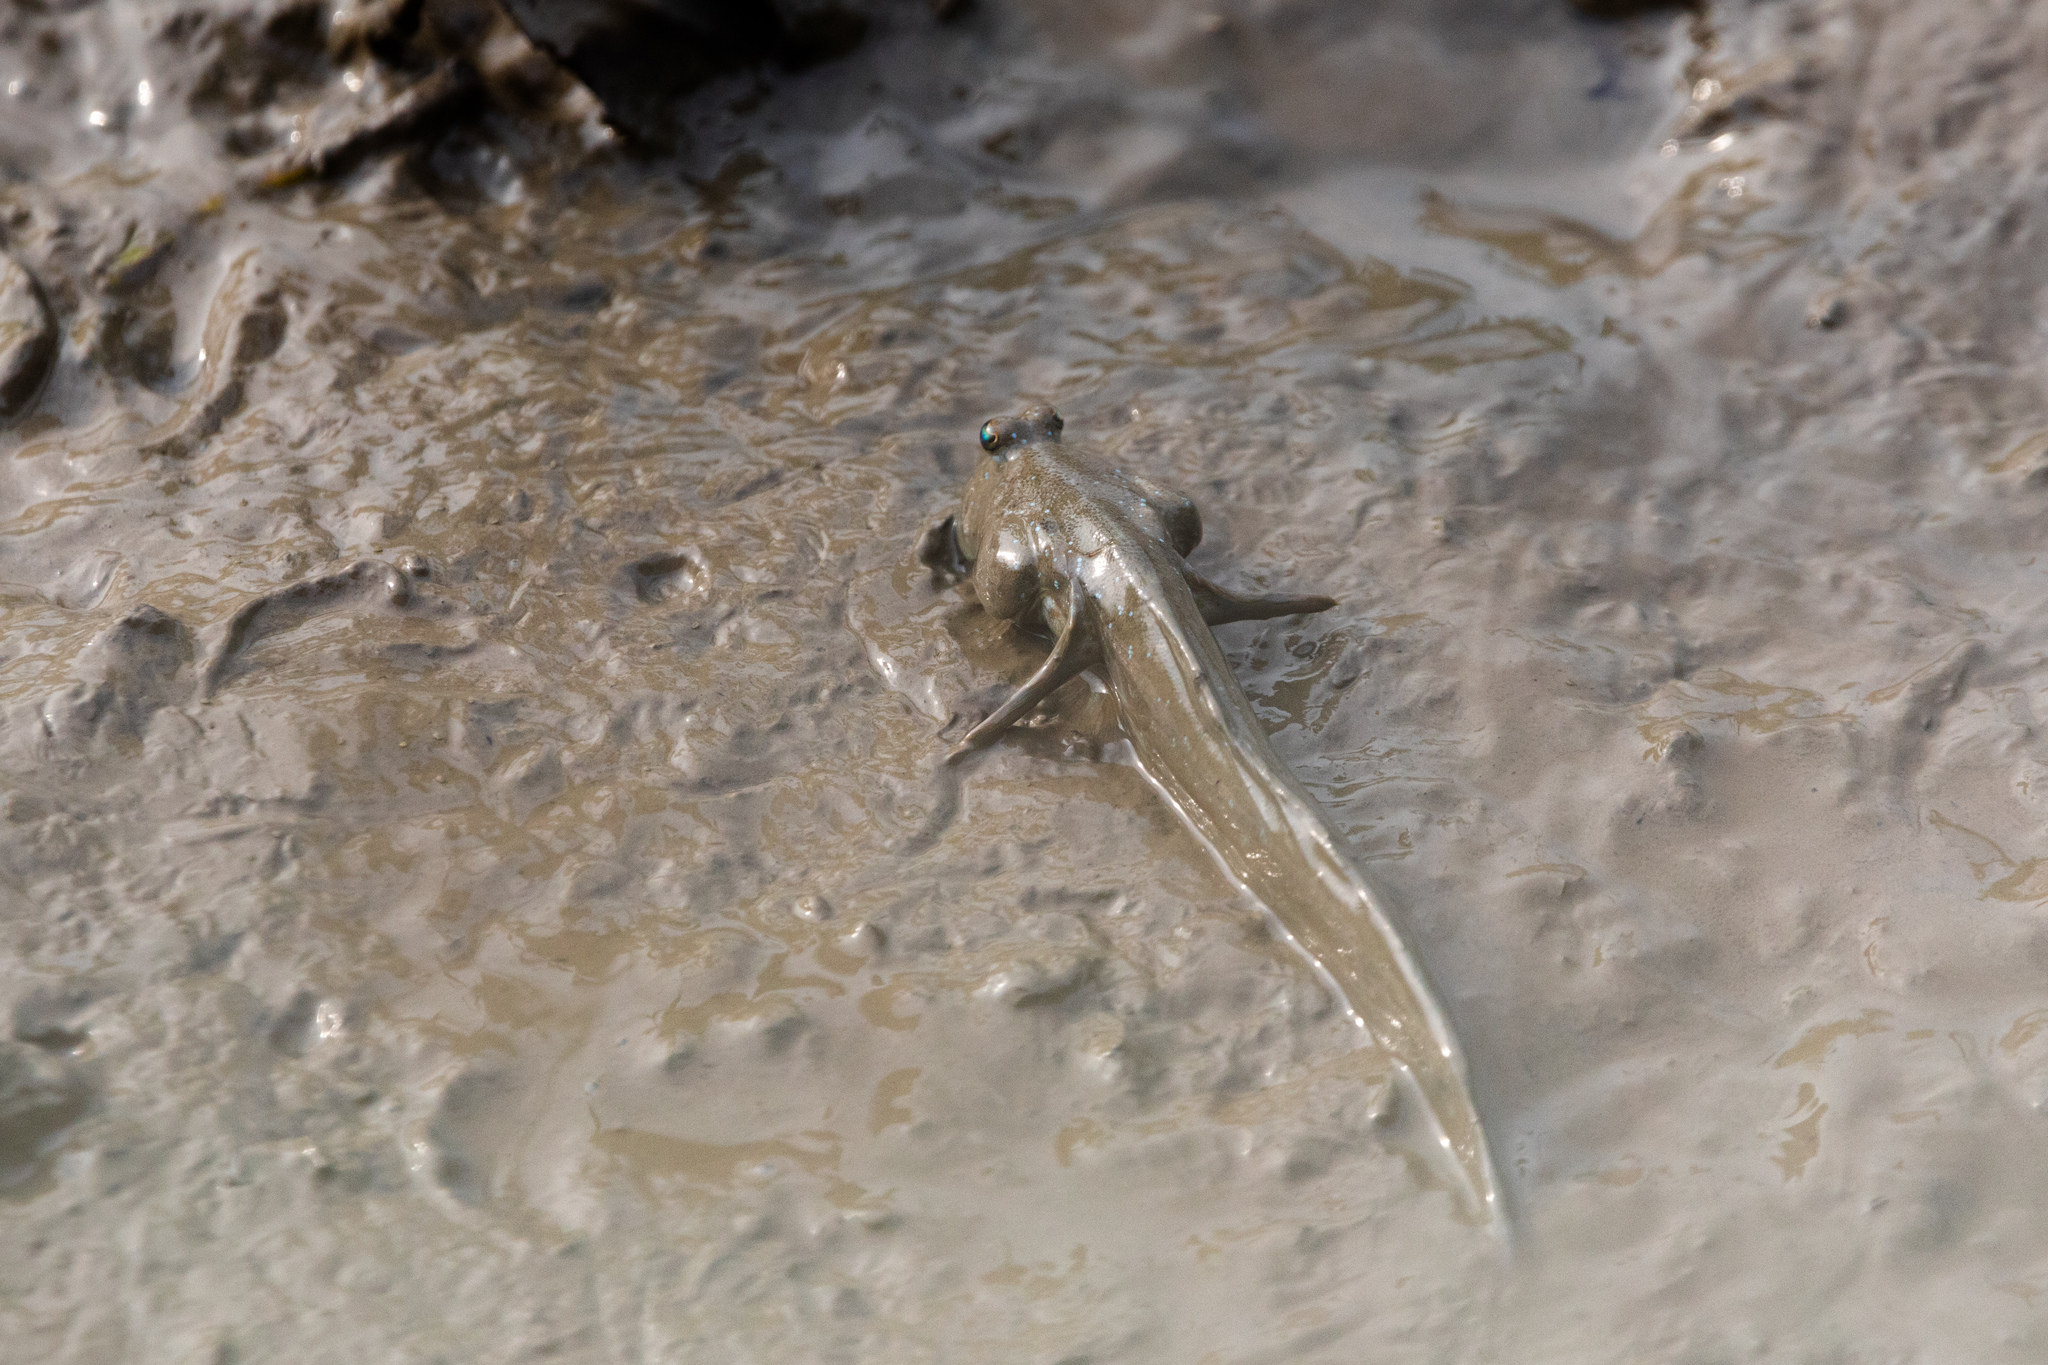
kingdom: Animalia
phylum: Chordata
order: Perciformes
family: Gobiidae
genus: Boleophthalmus
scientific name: Boleophthalmus pectinirostris
